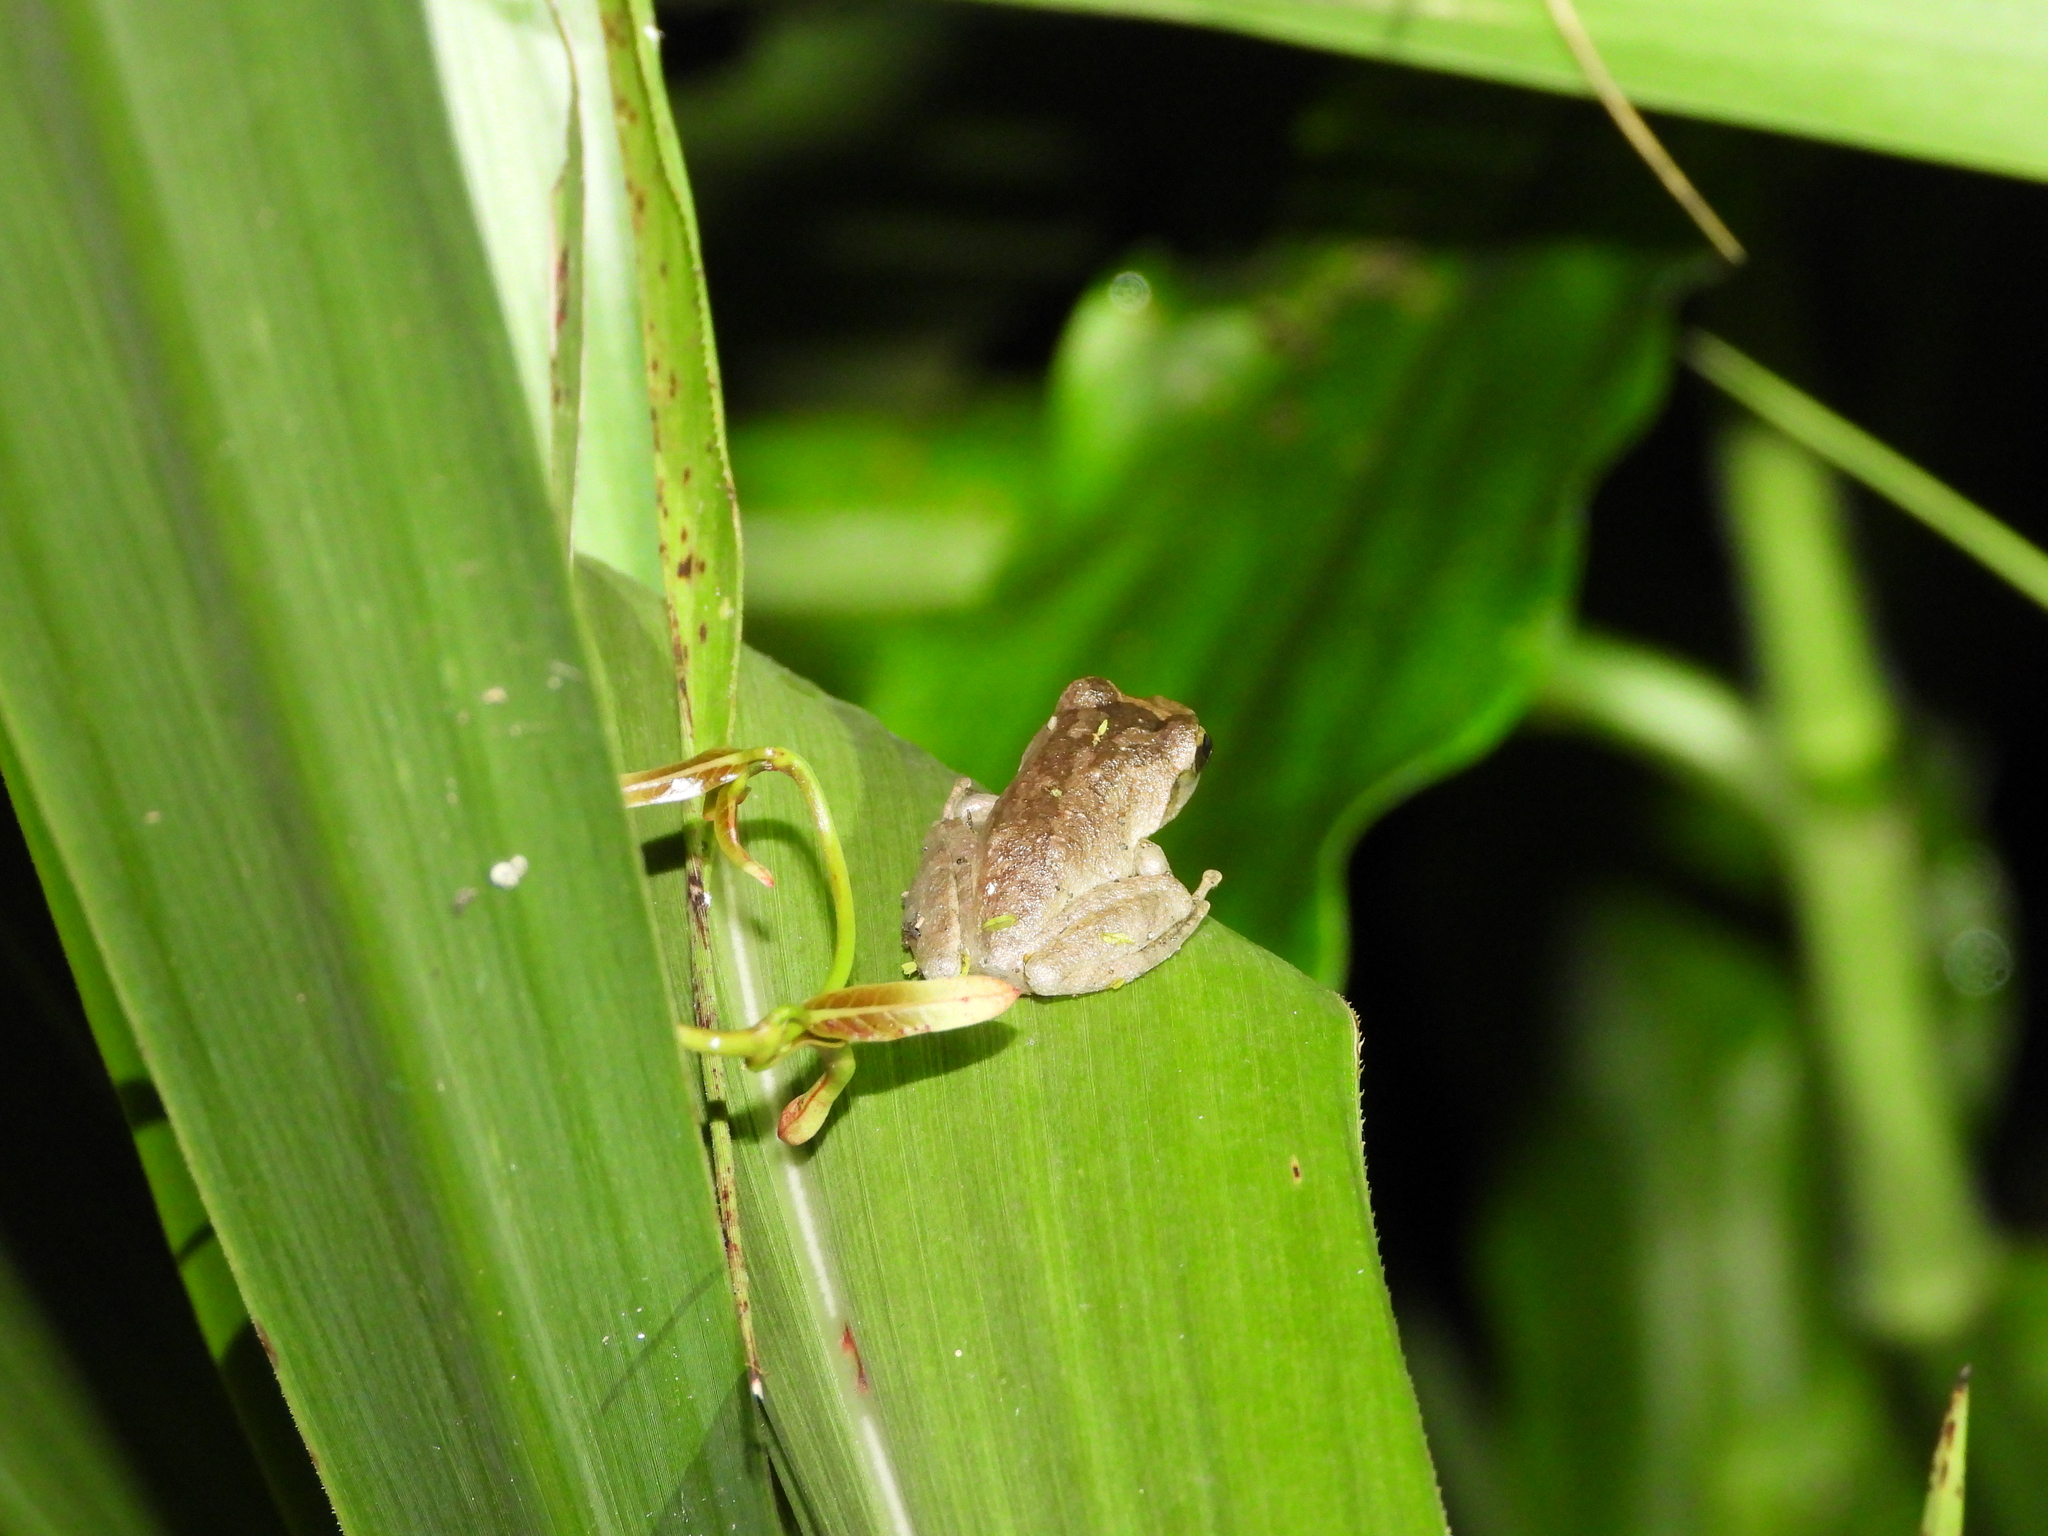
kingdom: Animalia
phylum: Chordata
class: Amphibia
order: Anura
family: Rhacophoridae
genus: Buergeria
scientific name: Buergeria robusta
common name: Brown treefrog
